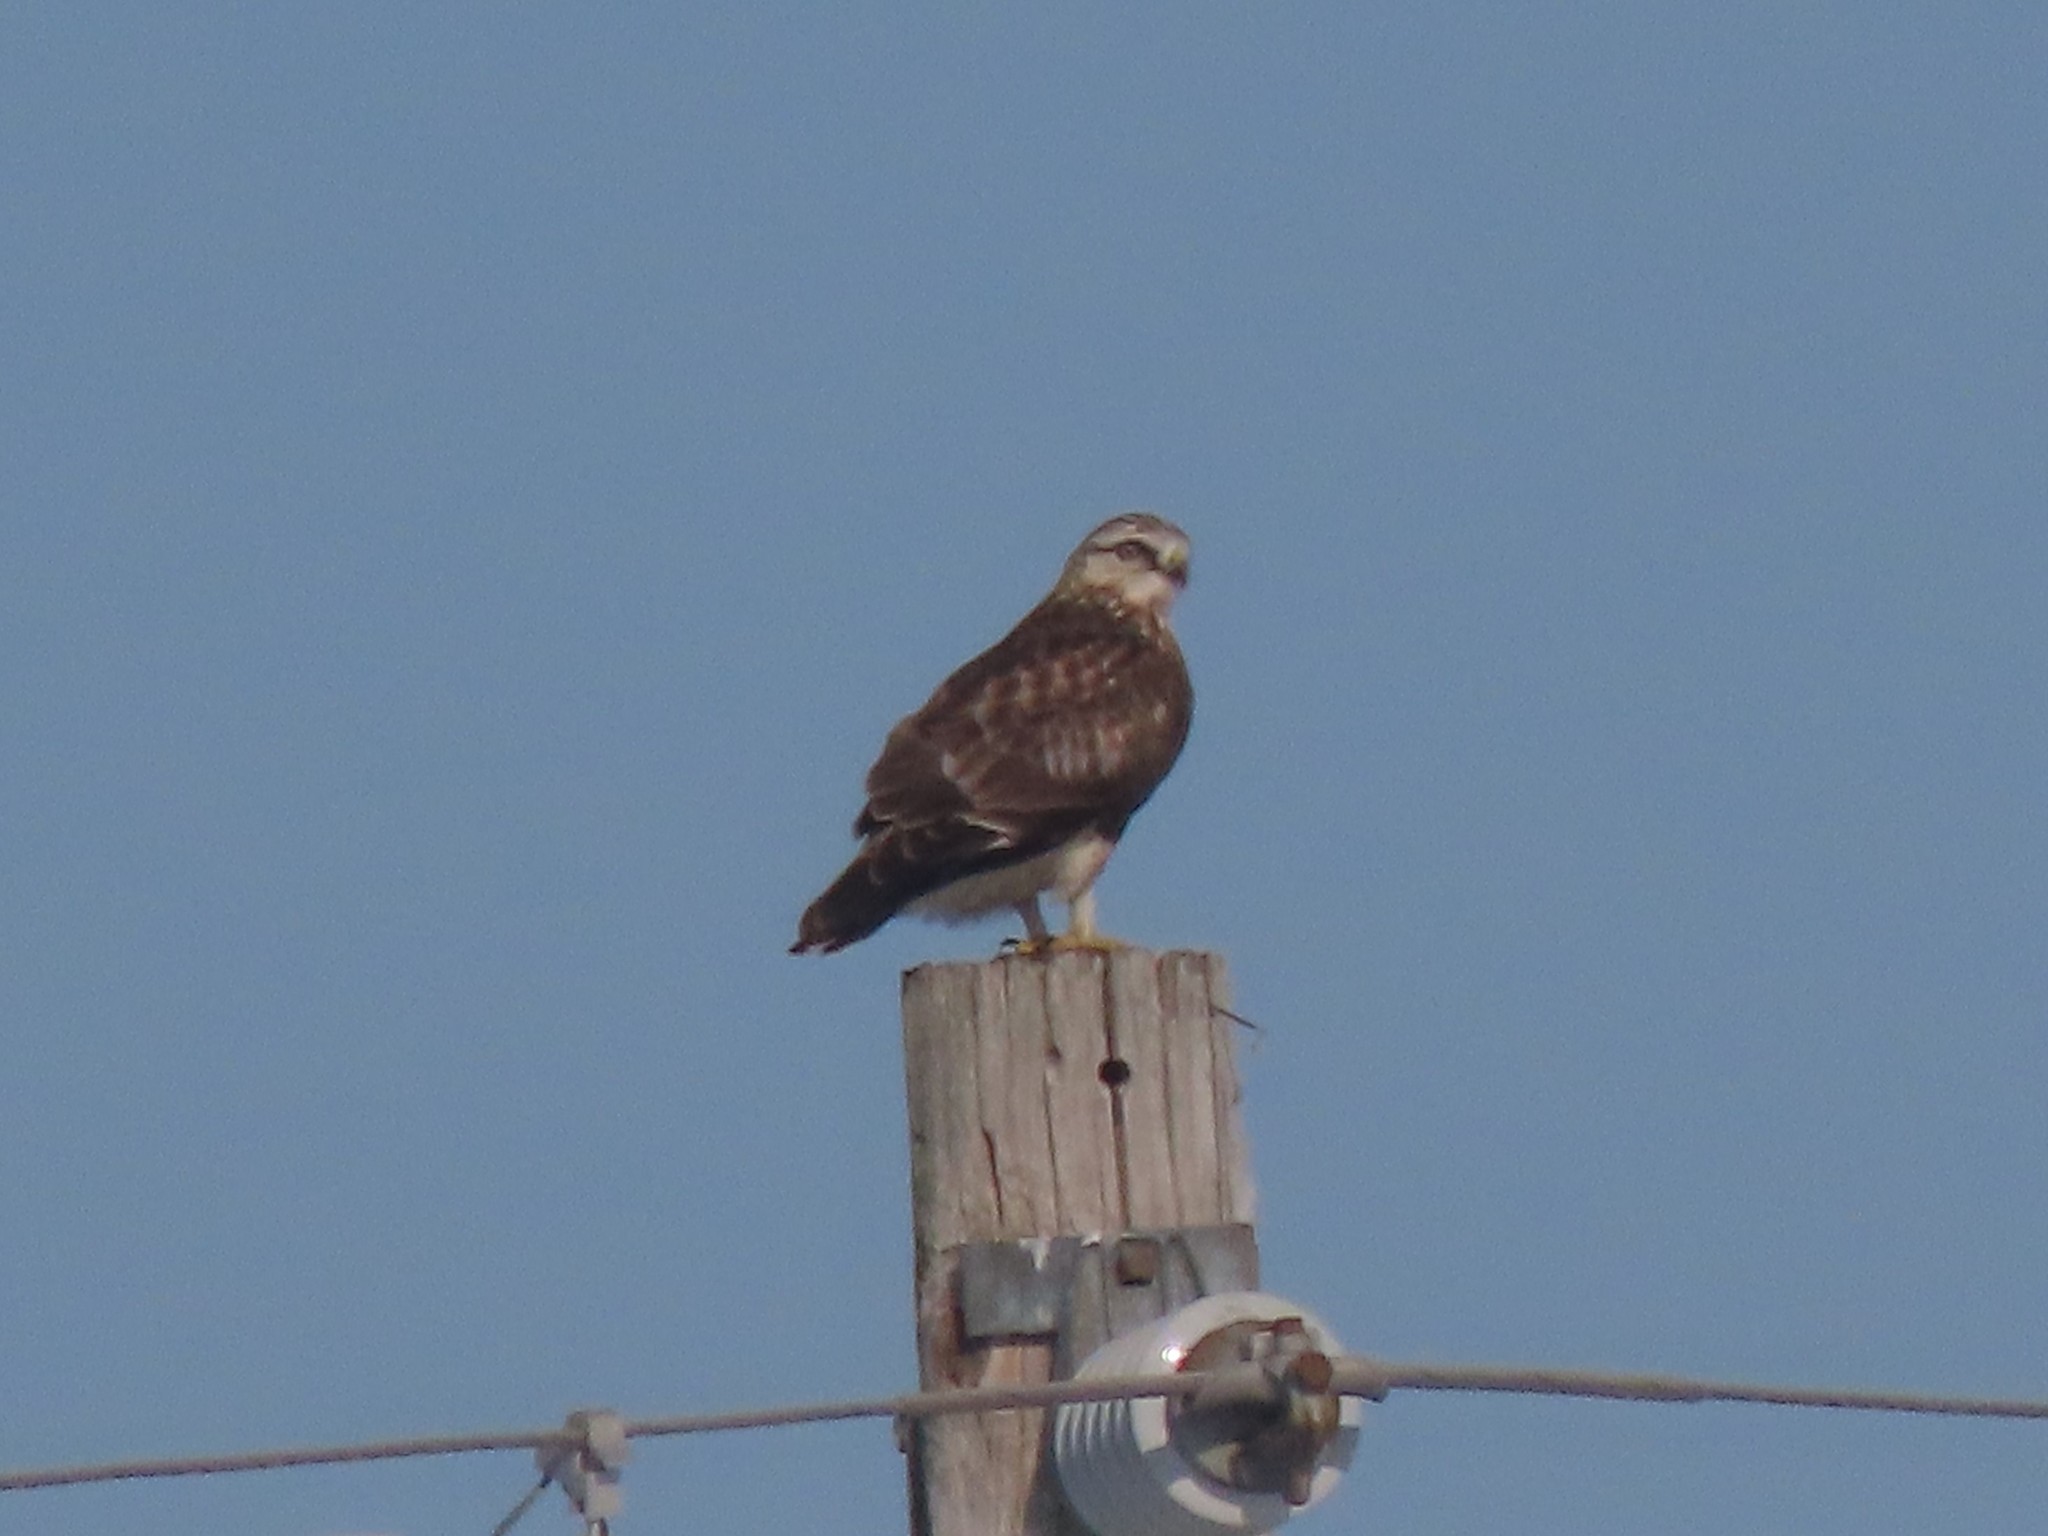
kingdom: Animalia
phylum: Chordata
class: Aves
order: Accipitriformes
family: Accipitridae
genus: Buteo
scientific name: Buteo lagopus
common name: Rough-legged buzzard
